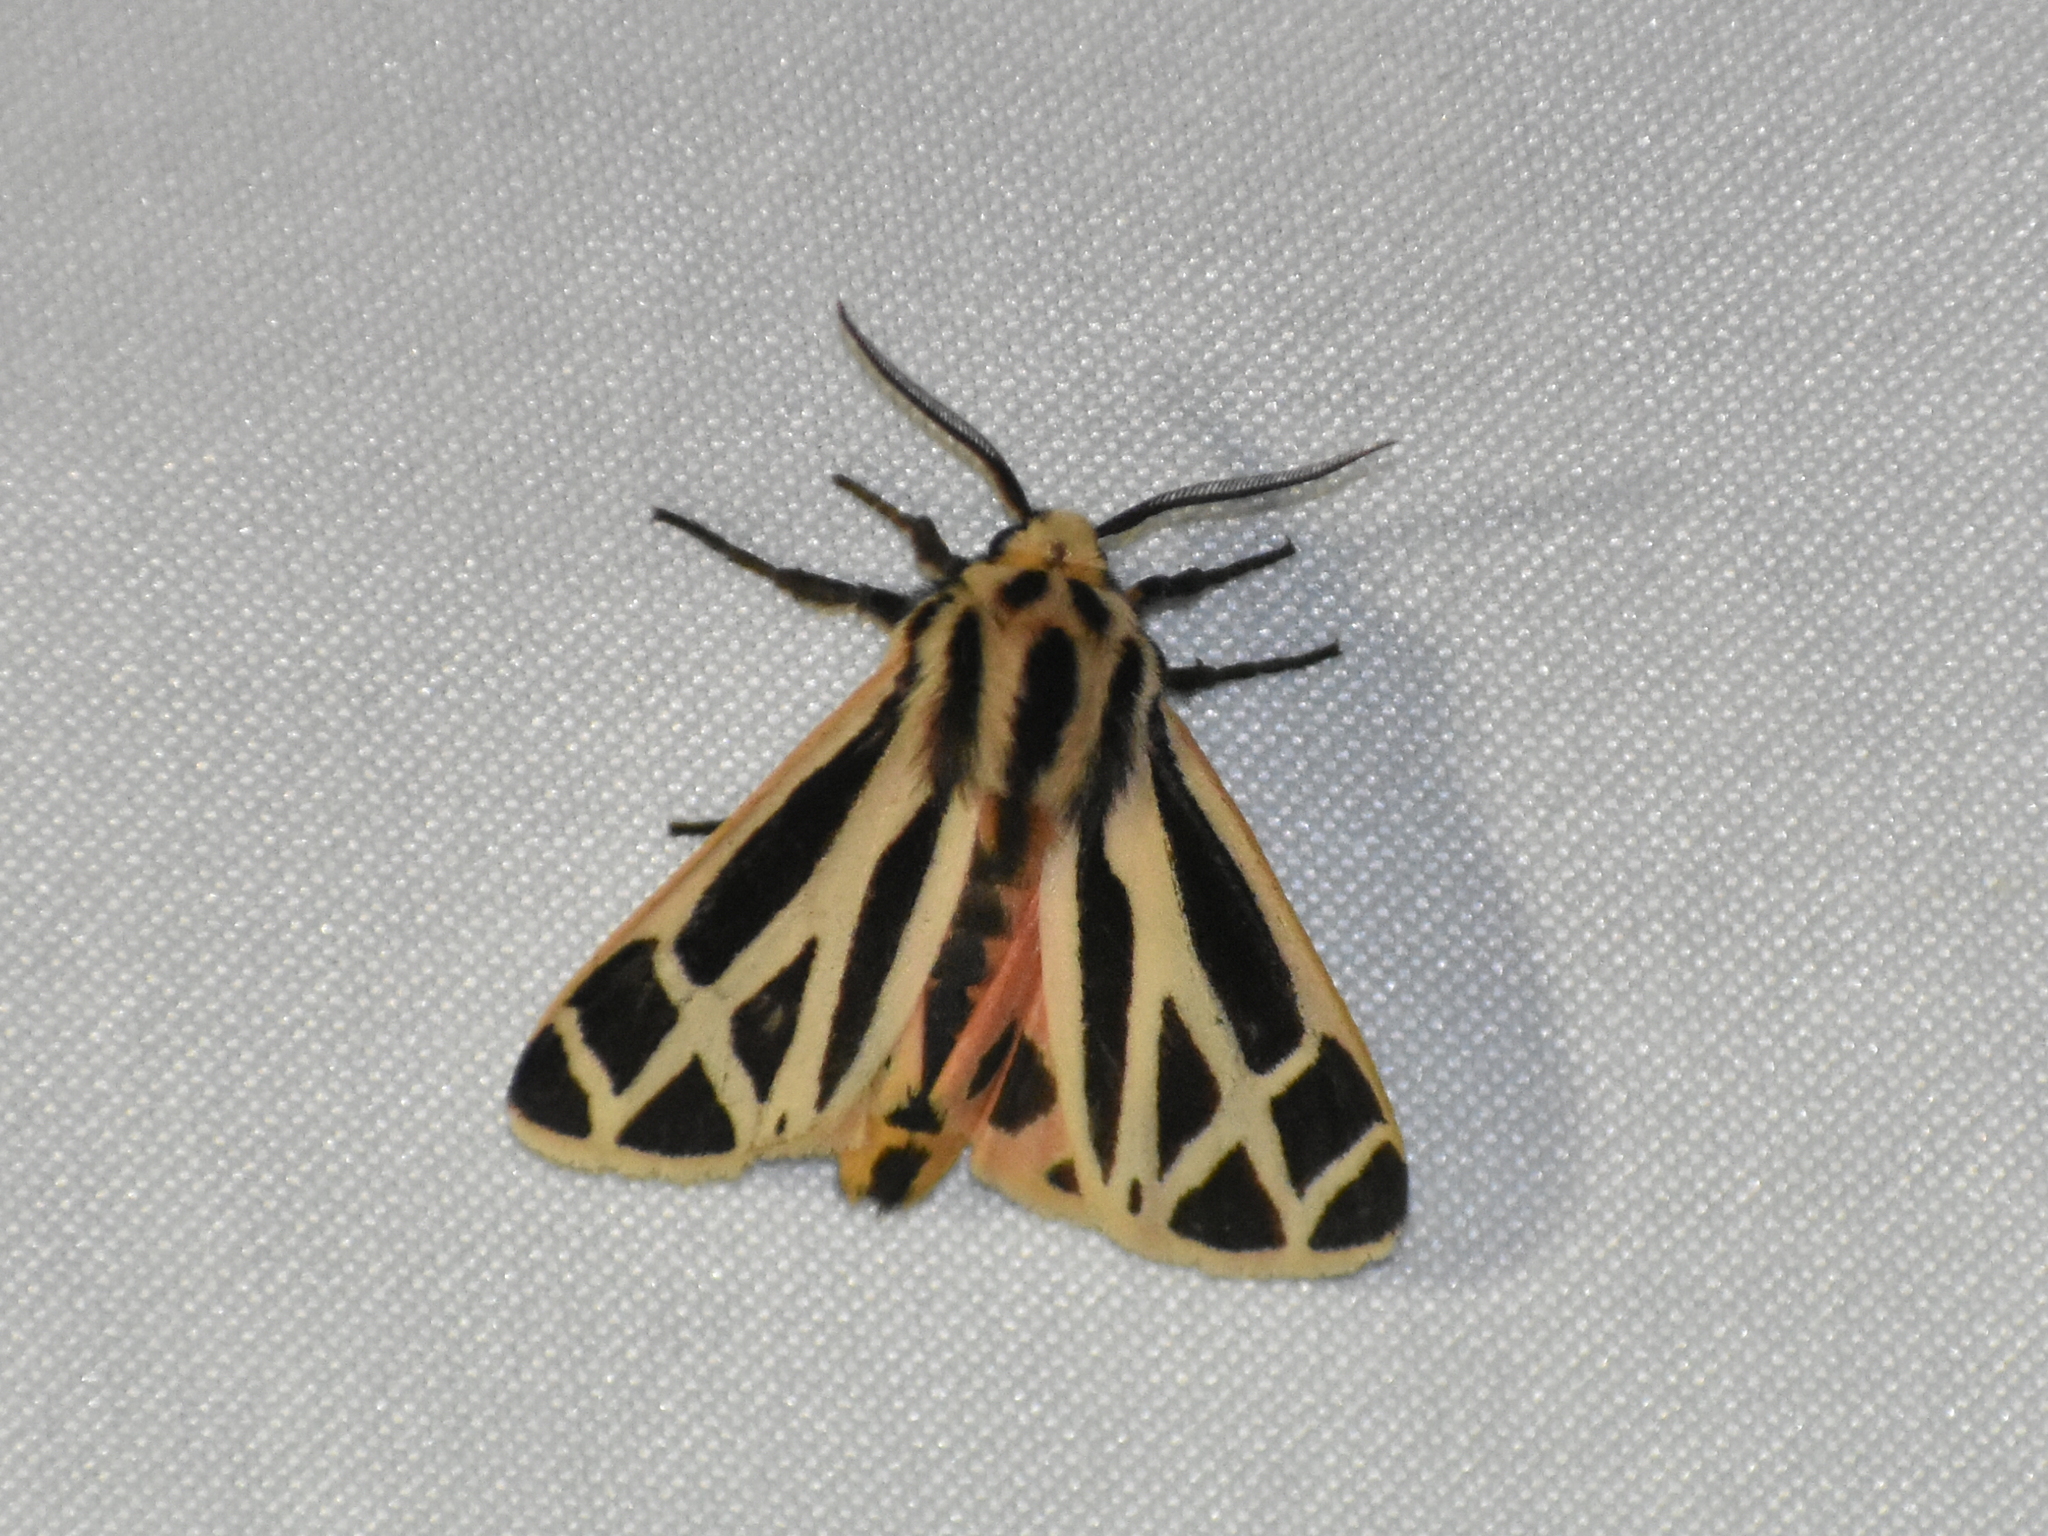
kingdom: Animalia
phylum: Arthropoda
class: Insecta
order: Lepidoptera
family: Erebidae
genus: Apantesis
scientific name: Apantesis phalerata
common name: Harnessed tiger moth
